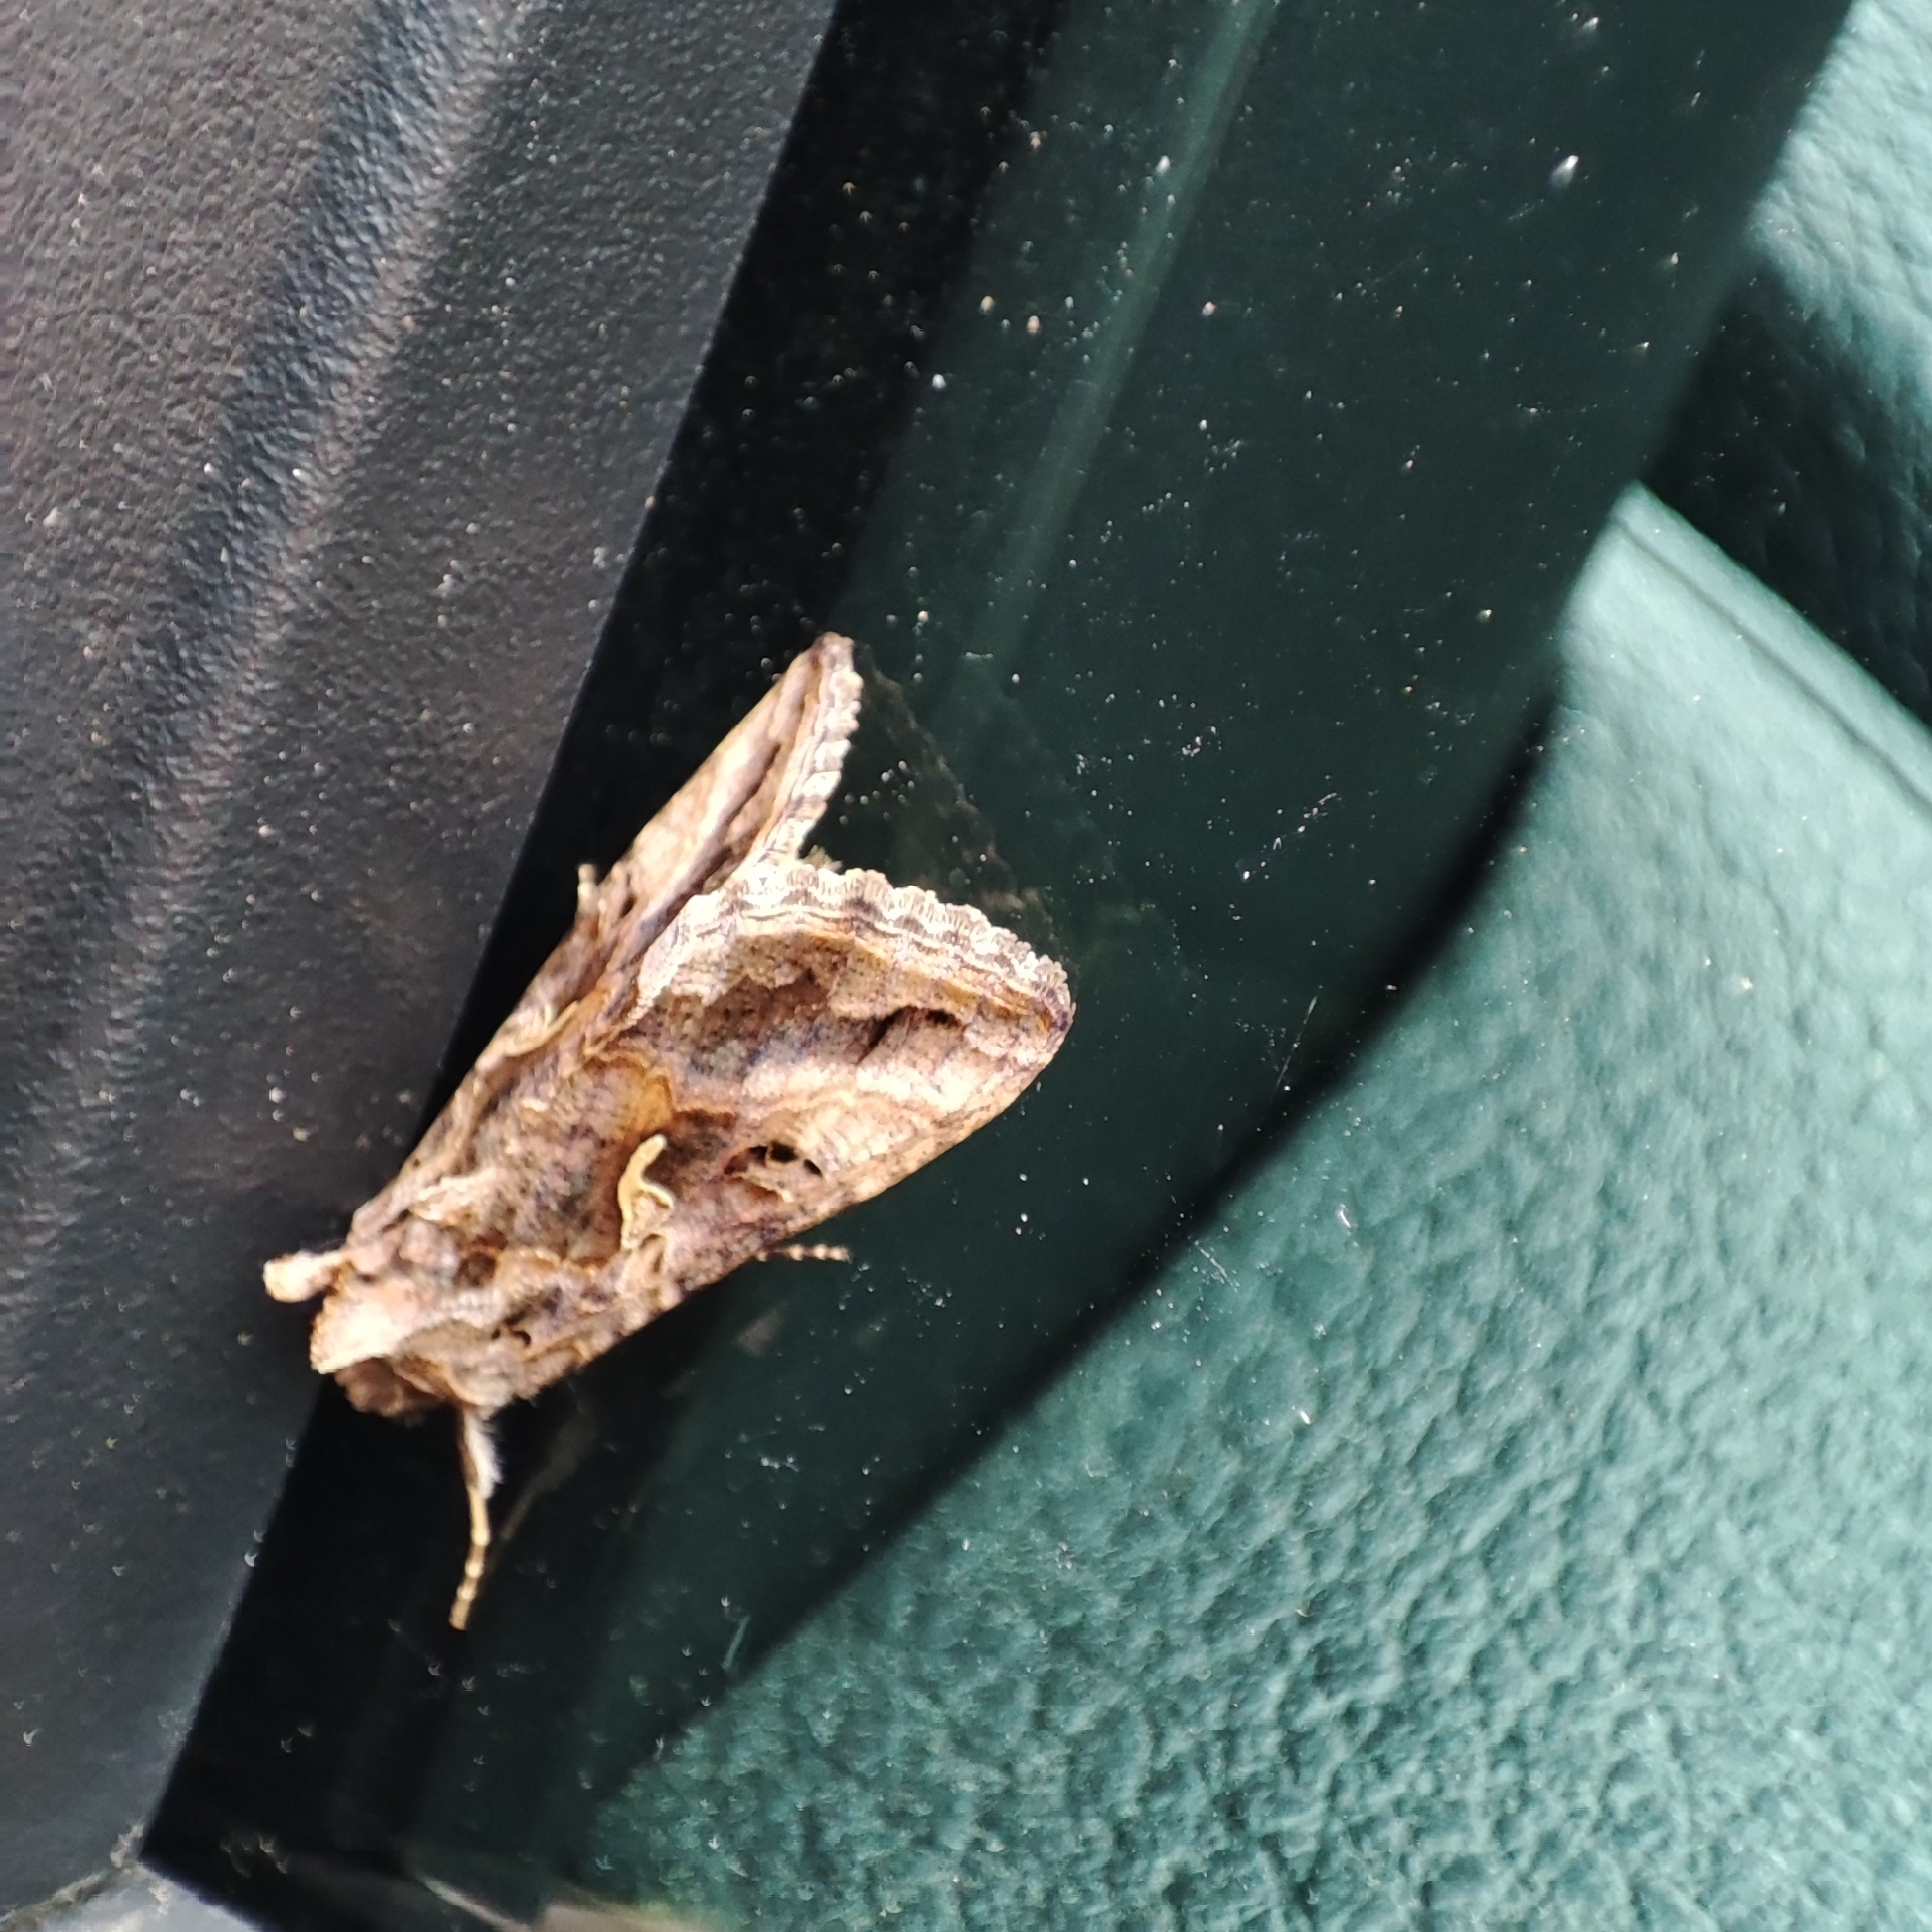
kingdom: Animalia
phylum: Arthropoda
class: Insecta
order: Lepidoptera
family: Noctuidae
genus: Autographa
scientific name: Autographa gamma
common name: Silver y
